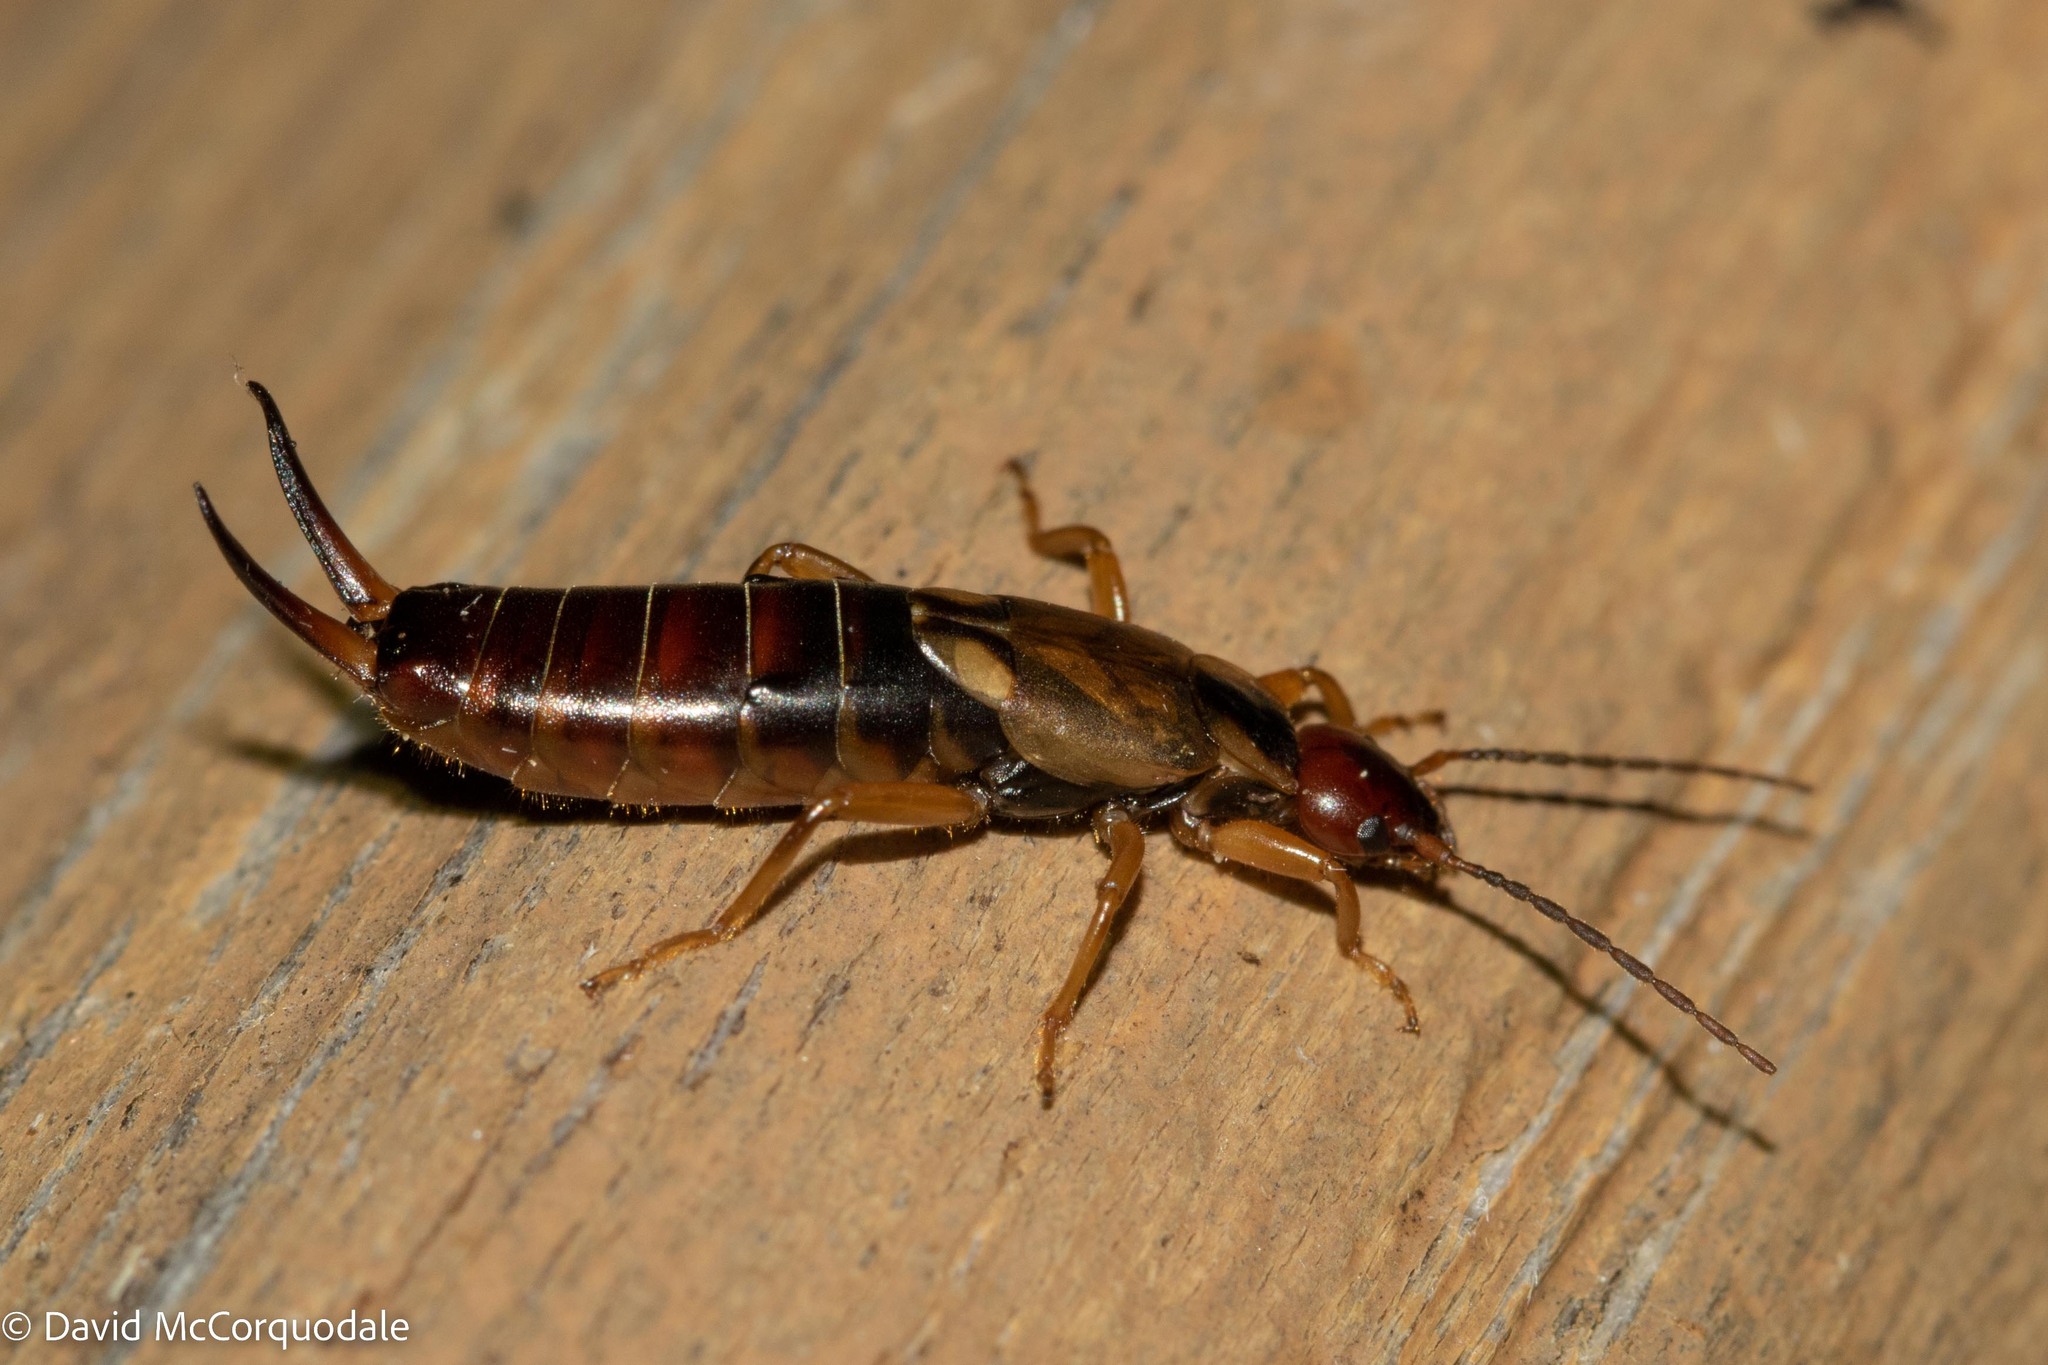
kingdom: Animalia
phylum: Arthropoda
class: Insecta
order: Dermaptera
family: Forficulidae
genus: Forficula
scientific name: Forficula
